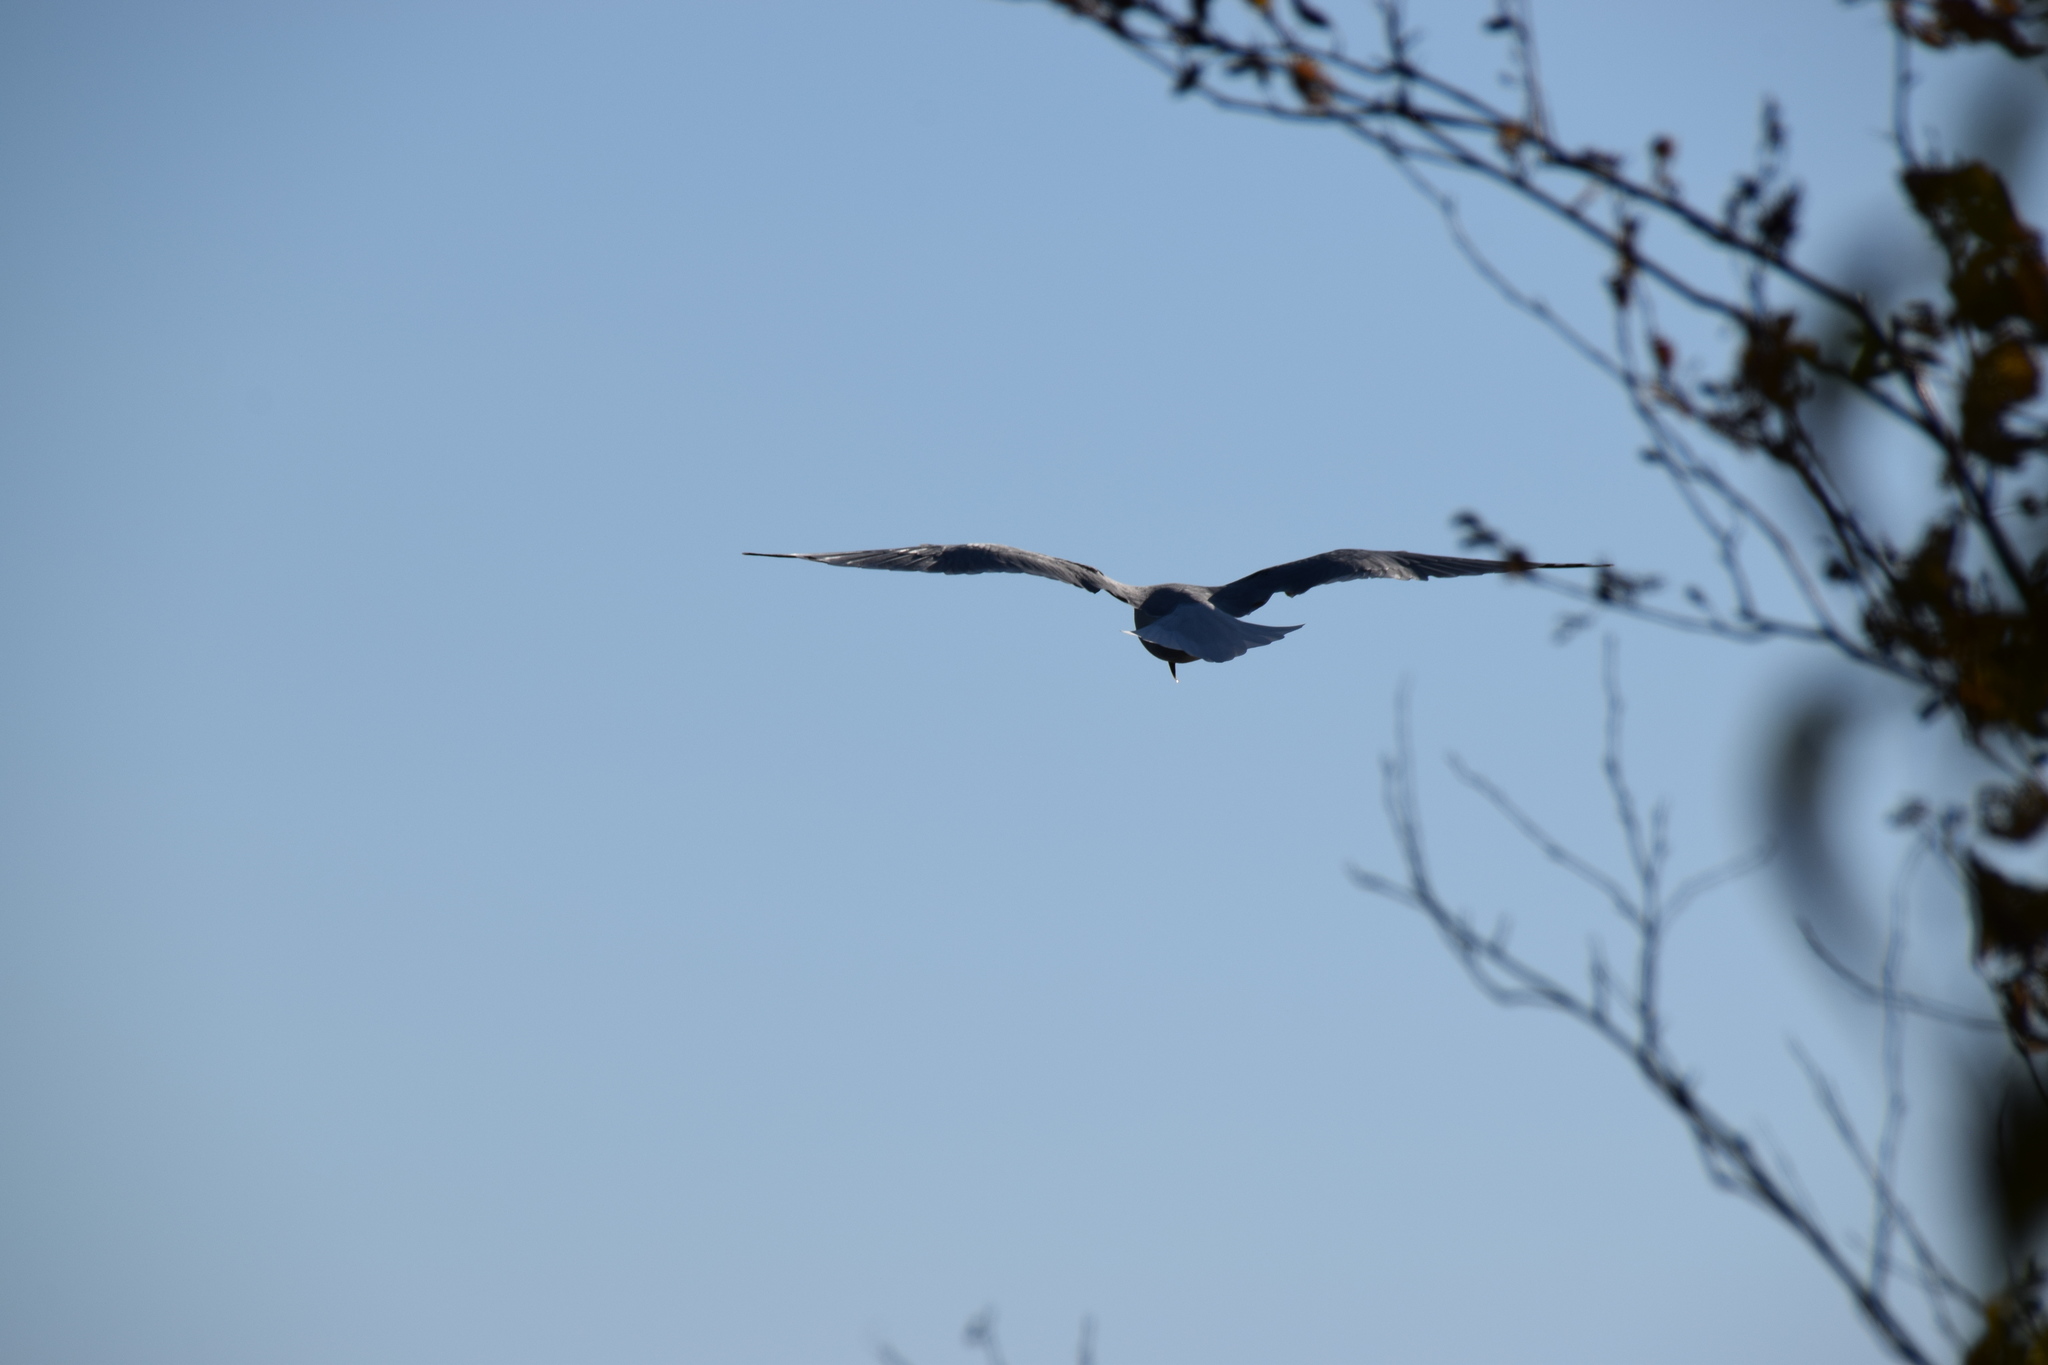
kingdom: Animalia
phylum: Chordata
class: Aves
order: Charadriiformes
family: Laridae
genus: Larus
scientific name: Larus argentatus
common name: Herring gull
